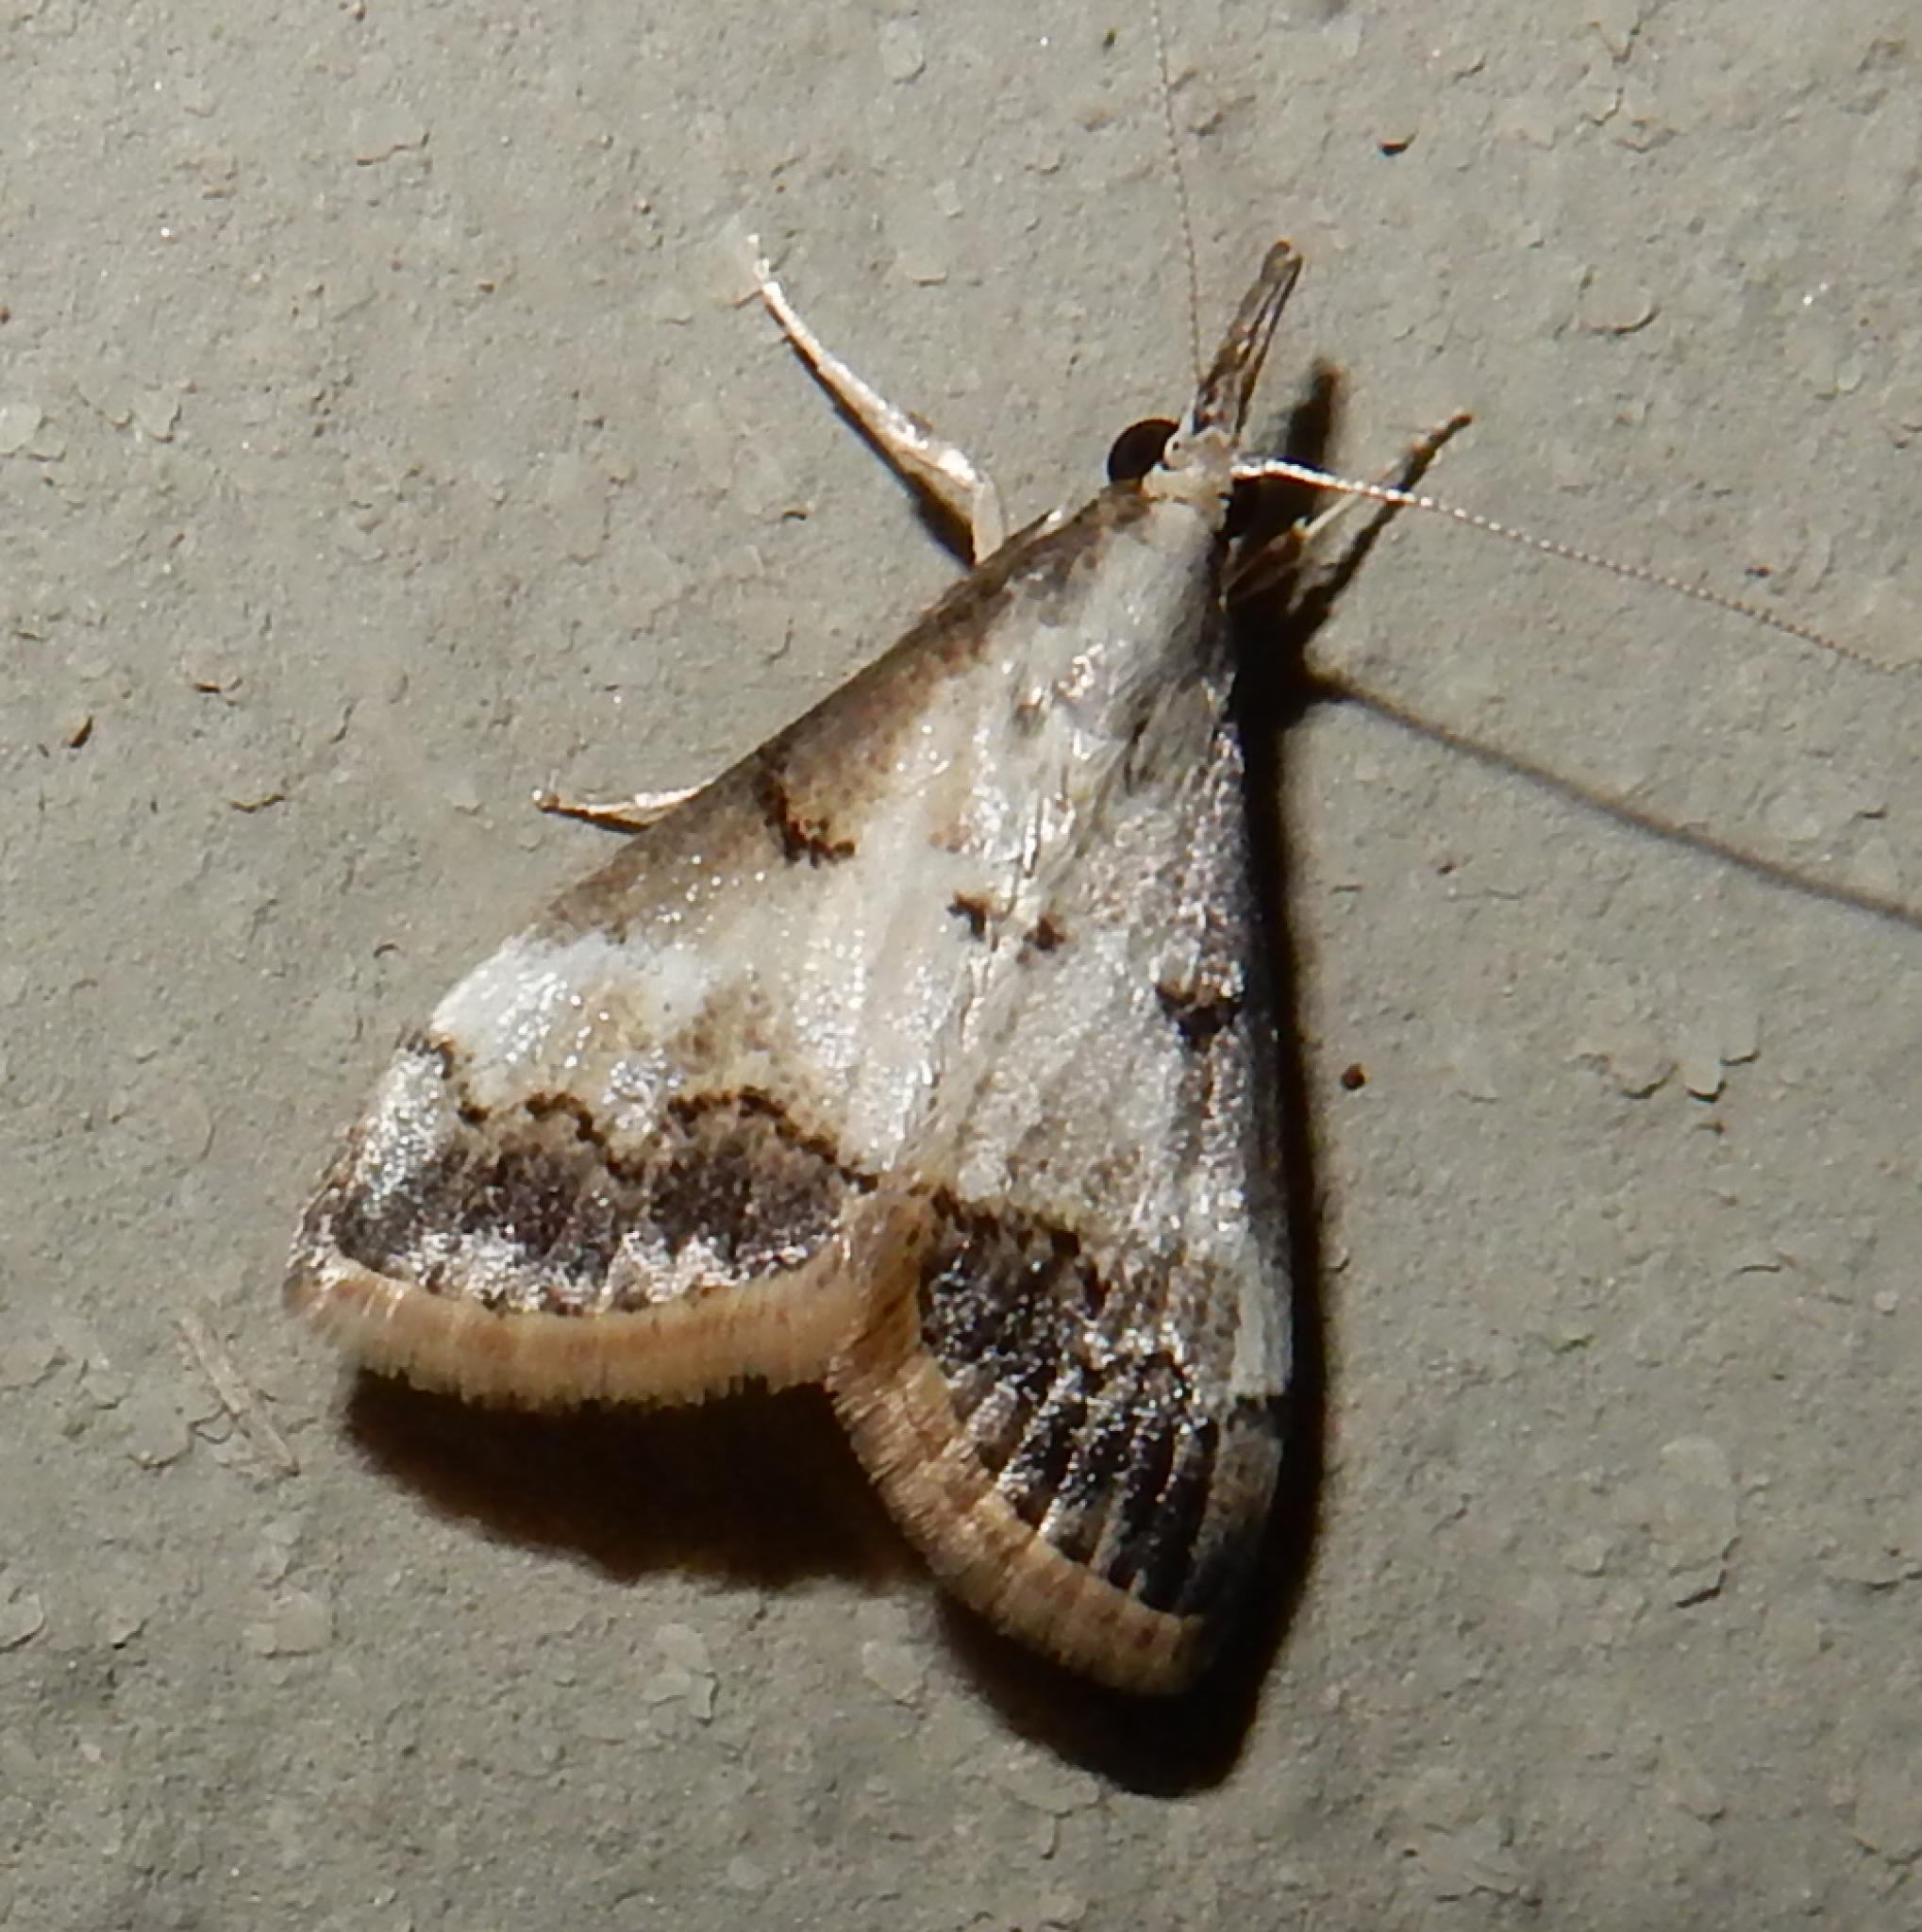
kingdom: Animalia
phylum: Arthropoda
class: Insecta
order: Lepidoptera
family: Crambidae
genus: Autocharis
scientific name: Autocharis sinualis
